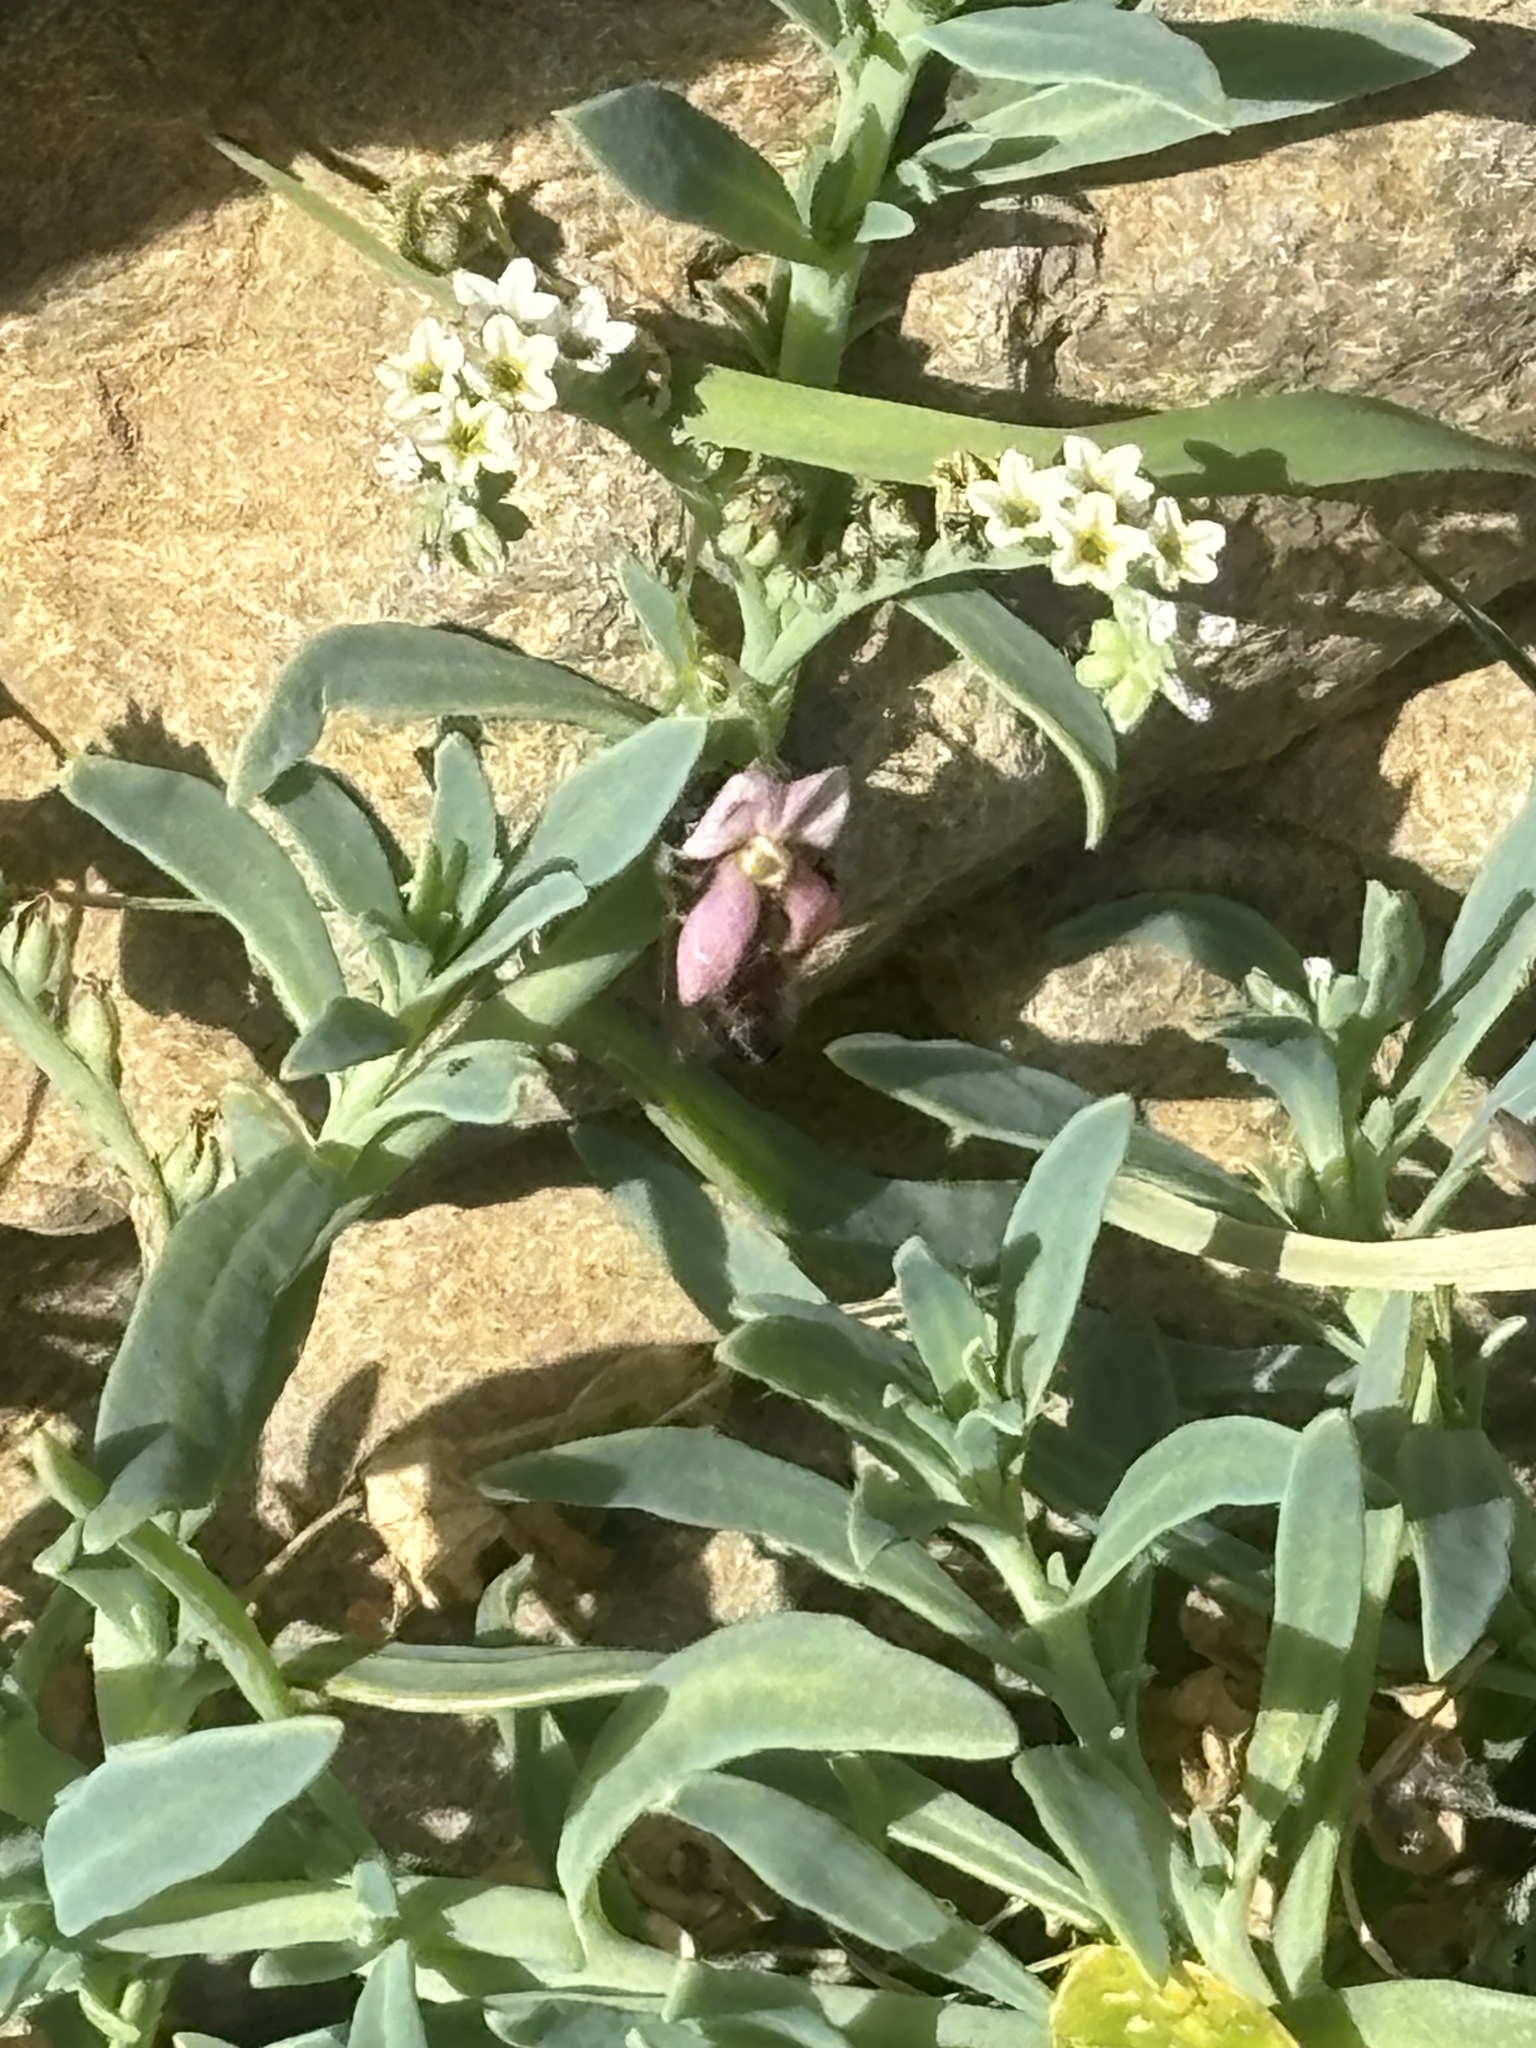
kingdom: Plantae
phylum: Tracheophyta
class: Magnoliopsida
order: Boraginales
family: Heliotropiaceae
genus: Heliotropium
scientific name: Heliotropium curassavicum
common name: Seaside heliotrope
